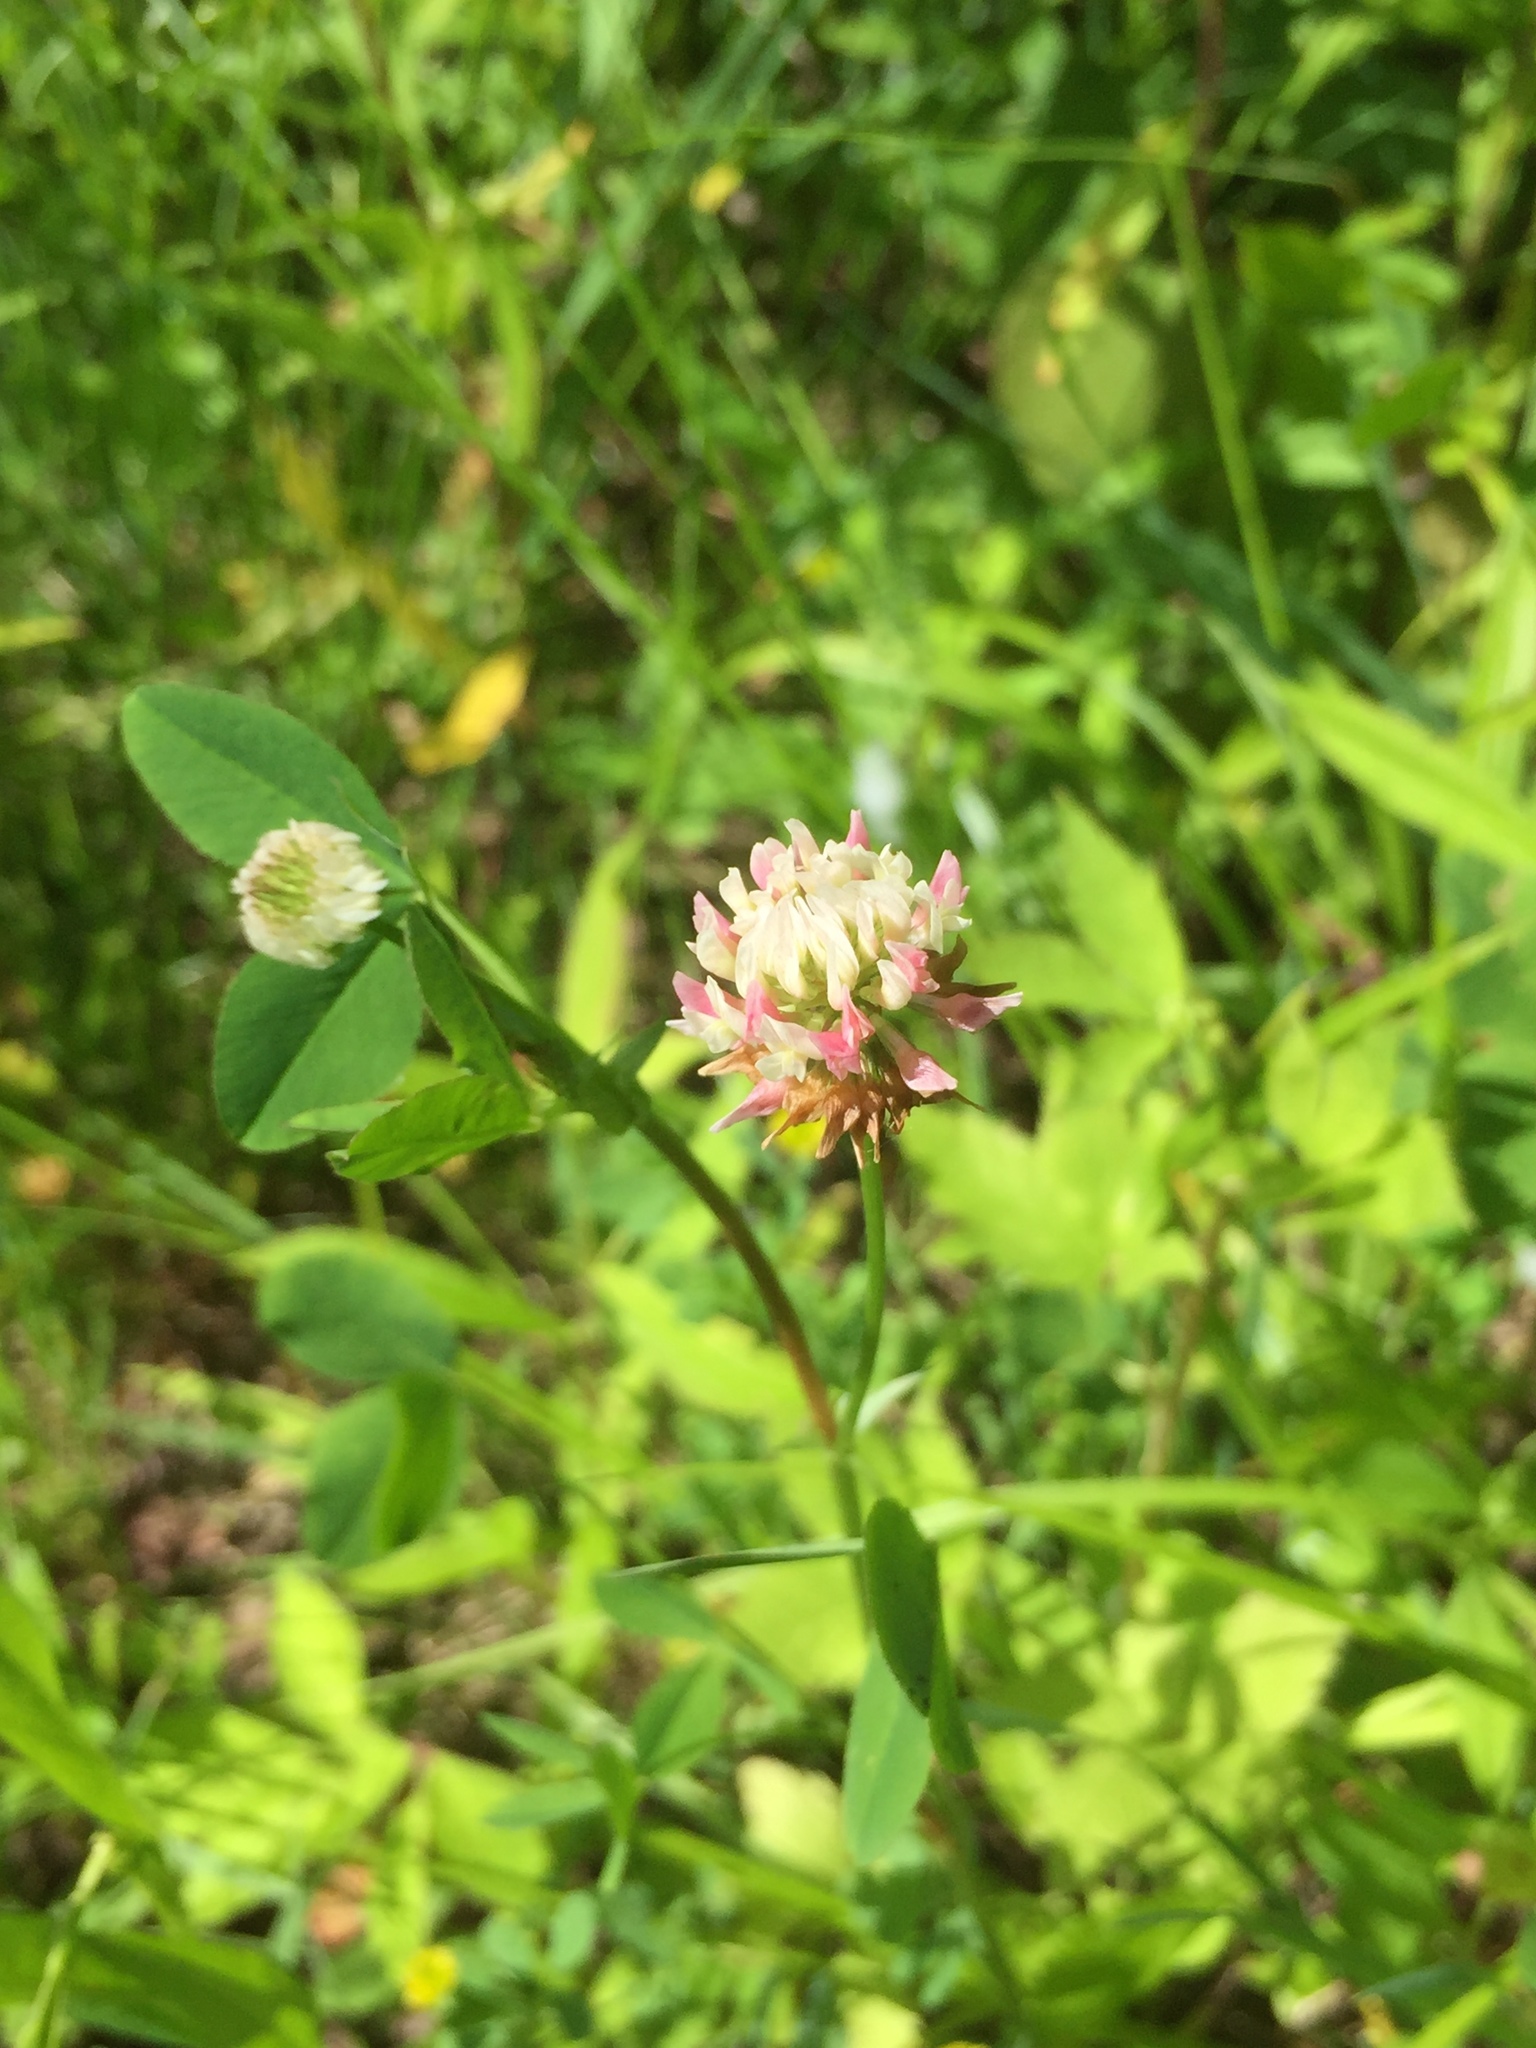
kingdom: Plantae
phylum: Tracheophyta
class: Magnoliopsida
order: Fabales
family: Fabaceae
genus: Trifolium
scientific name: Trifolium hybridum
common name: Alsike clover
